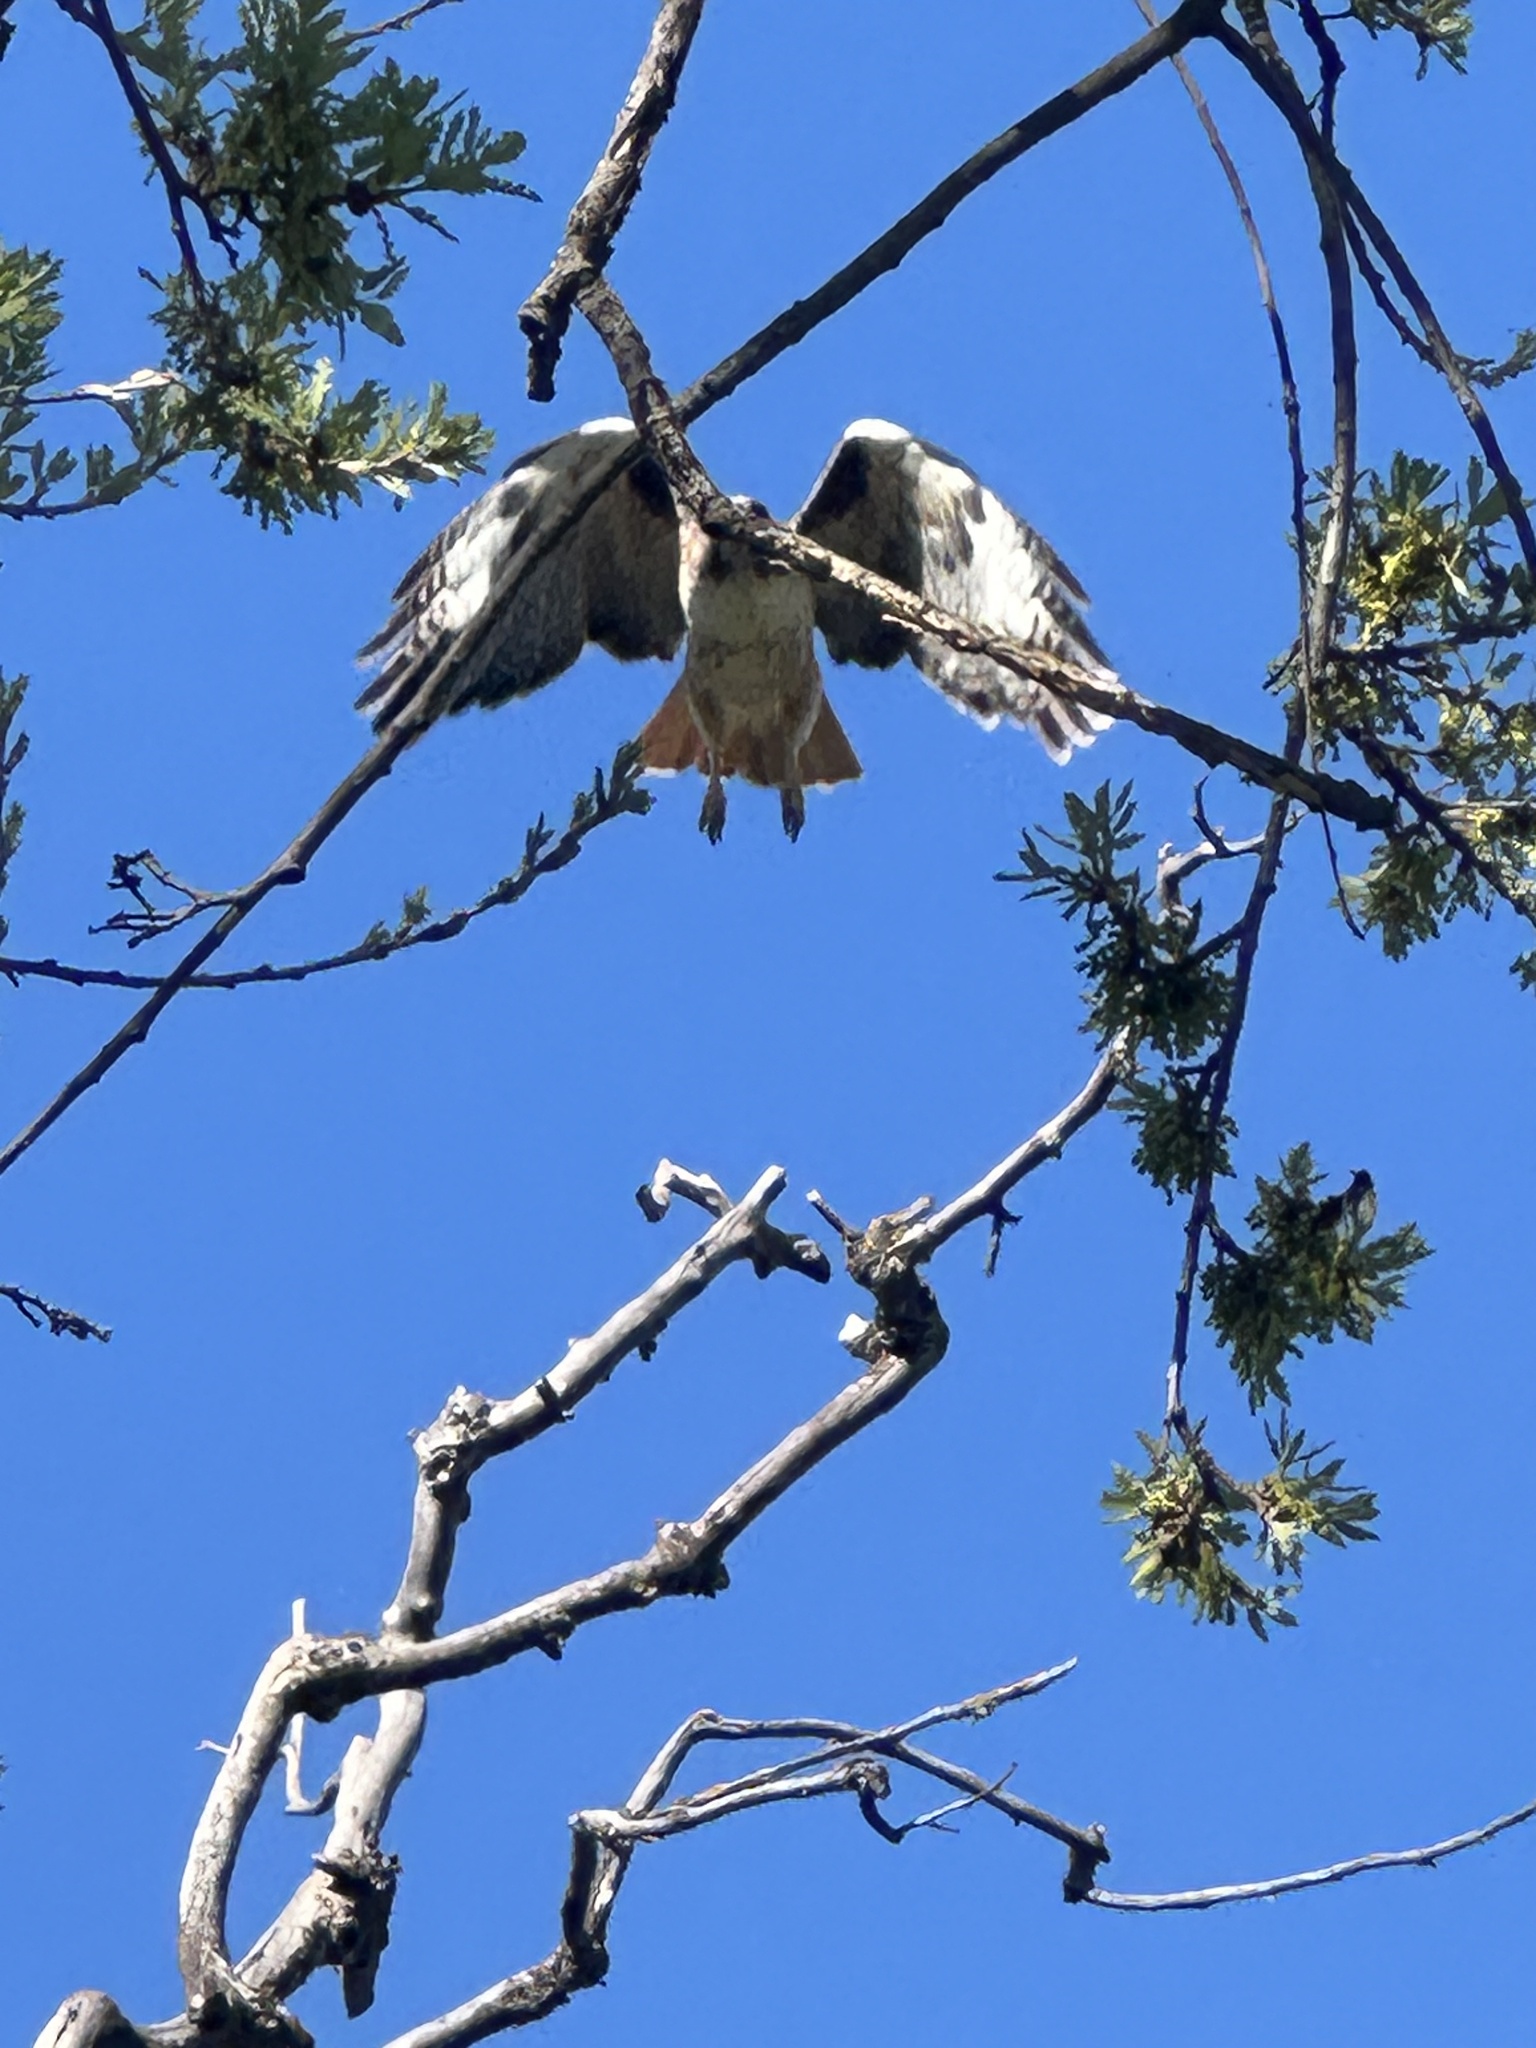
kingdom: Animalia
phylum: Chordata
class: Aves
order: Accipitriformes
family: Accipitridae
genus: Buteo
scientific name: Buteo jamaicensis
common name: Red-tailed hawk
